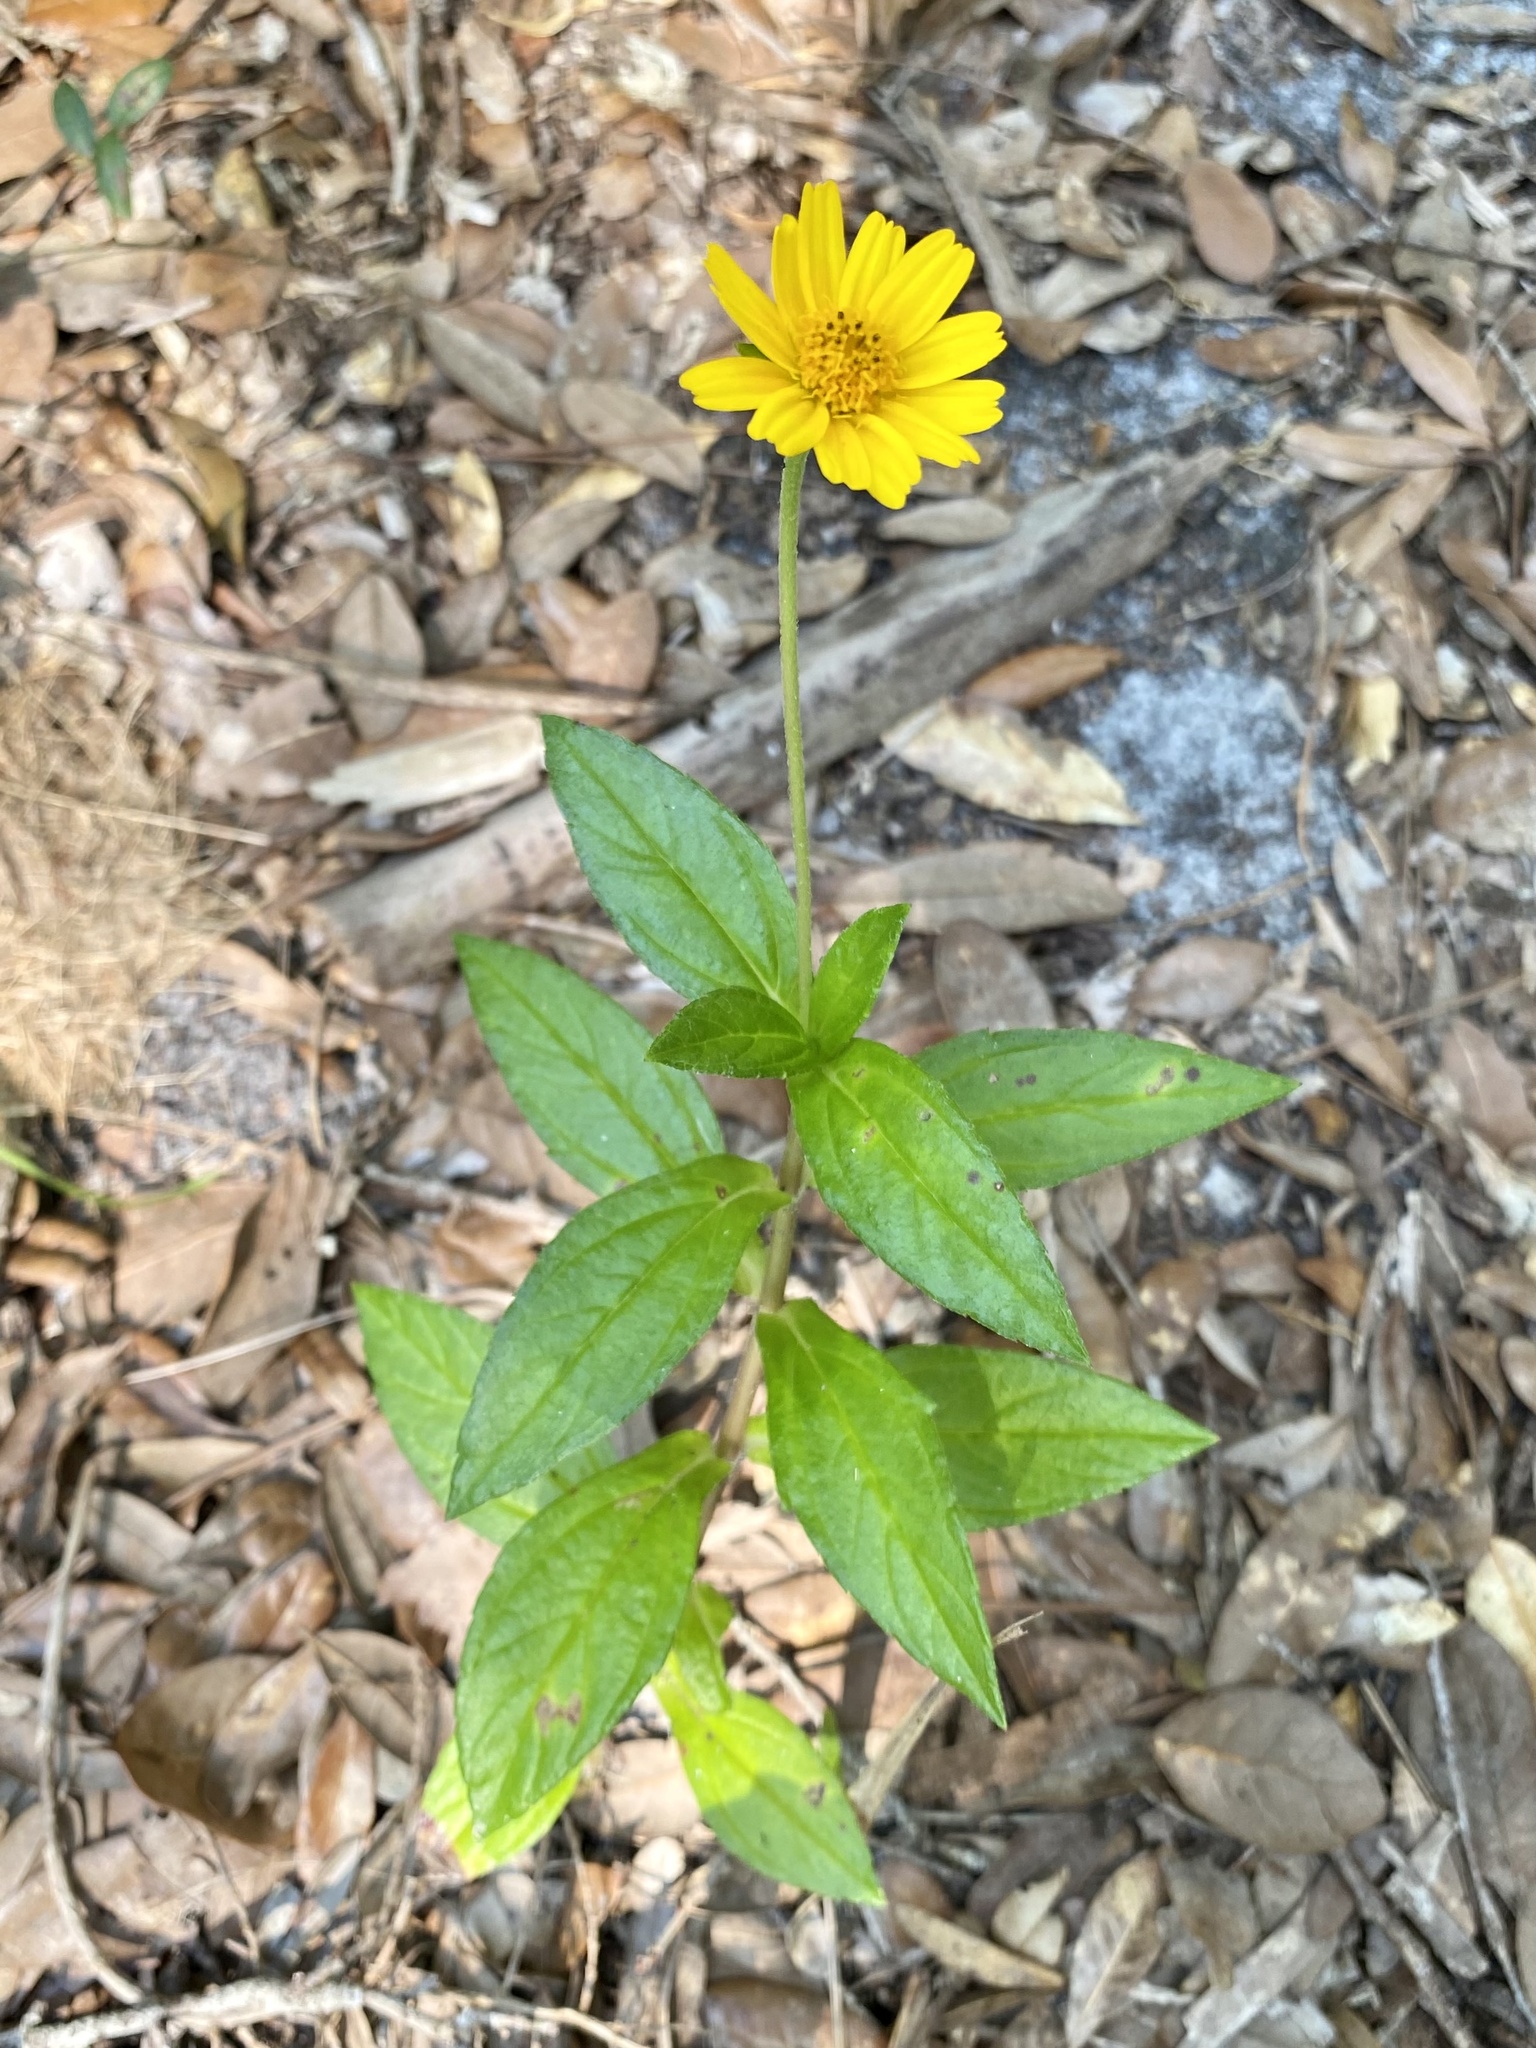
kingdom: Plantae
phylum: Tracheophyta
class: Magnoliopsida
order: Asterales
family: Asteraceae
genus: Sphagneticola
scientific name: Sphagneticola trilobata
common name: Bay biscayne creeping-oxeye
